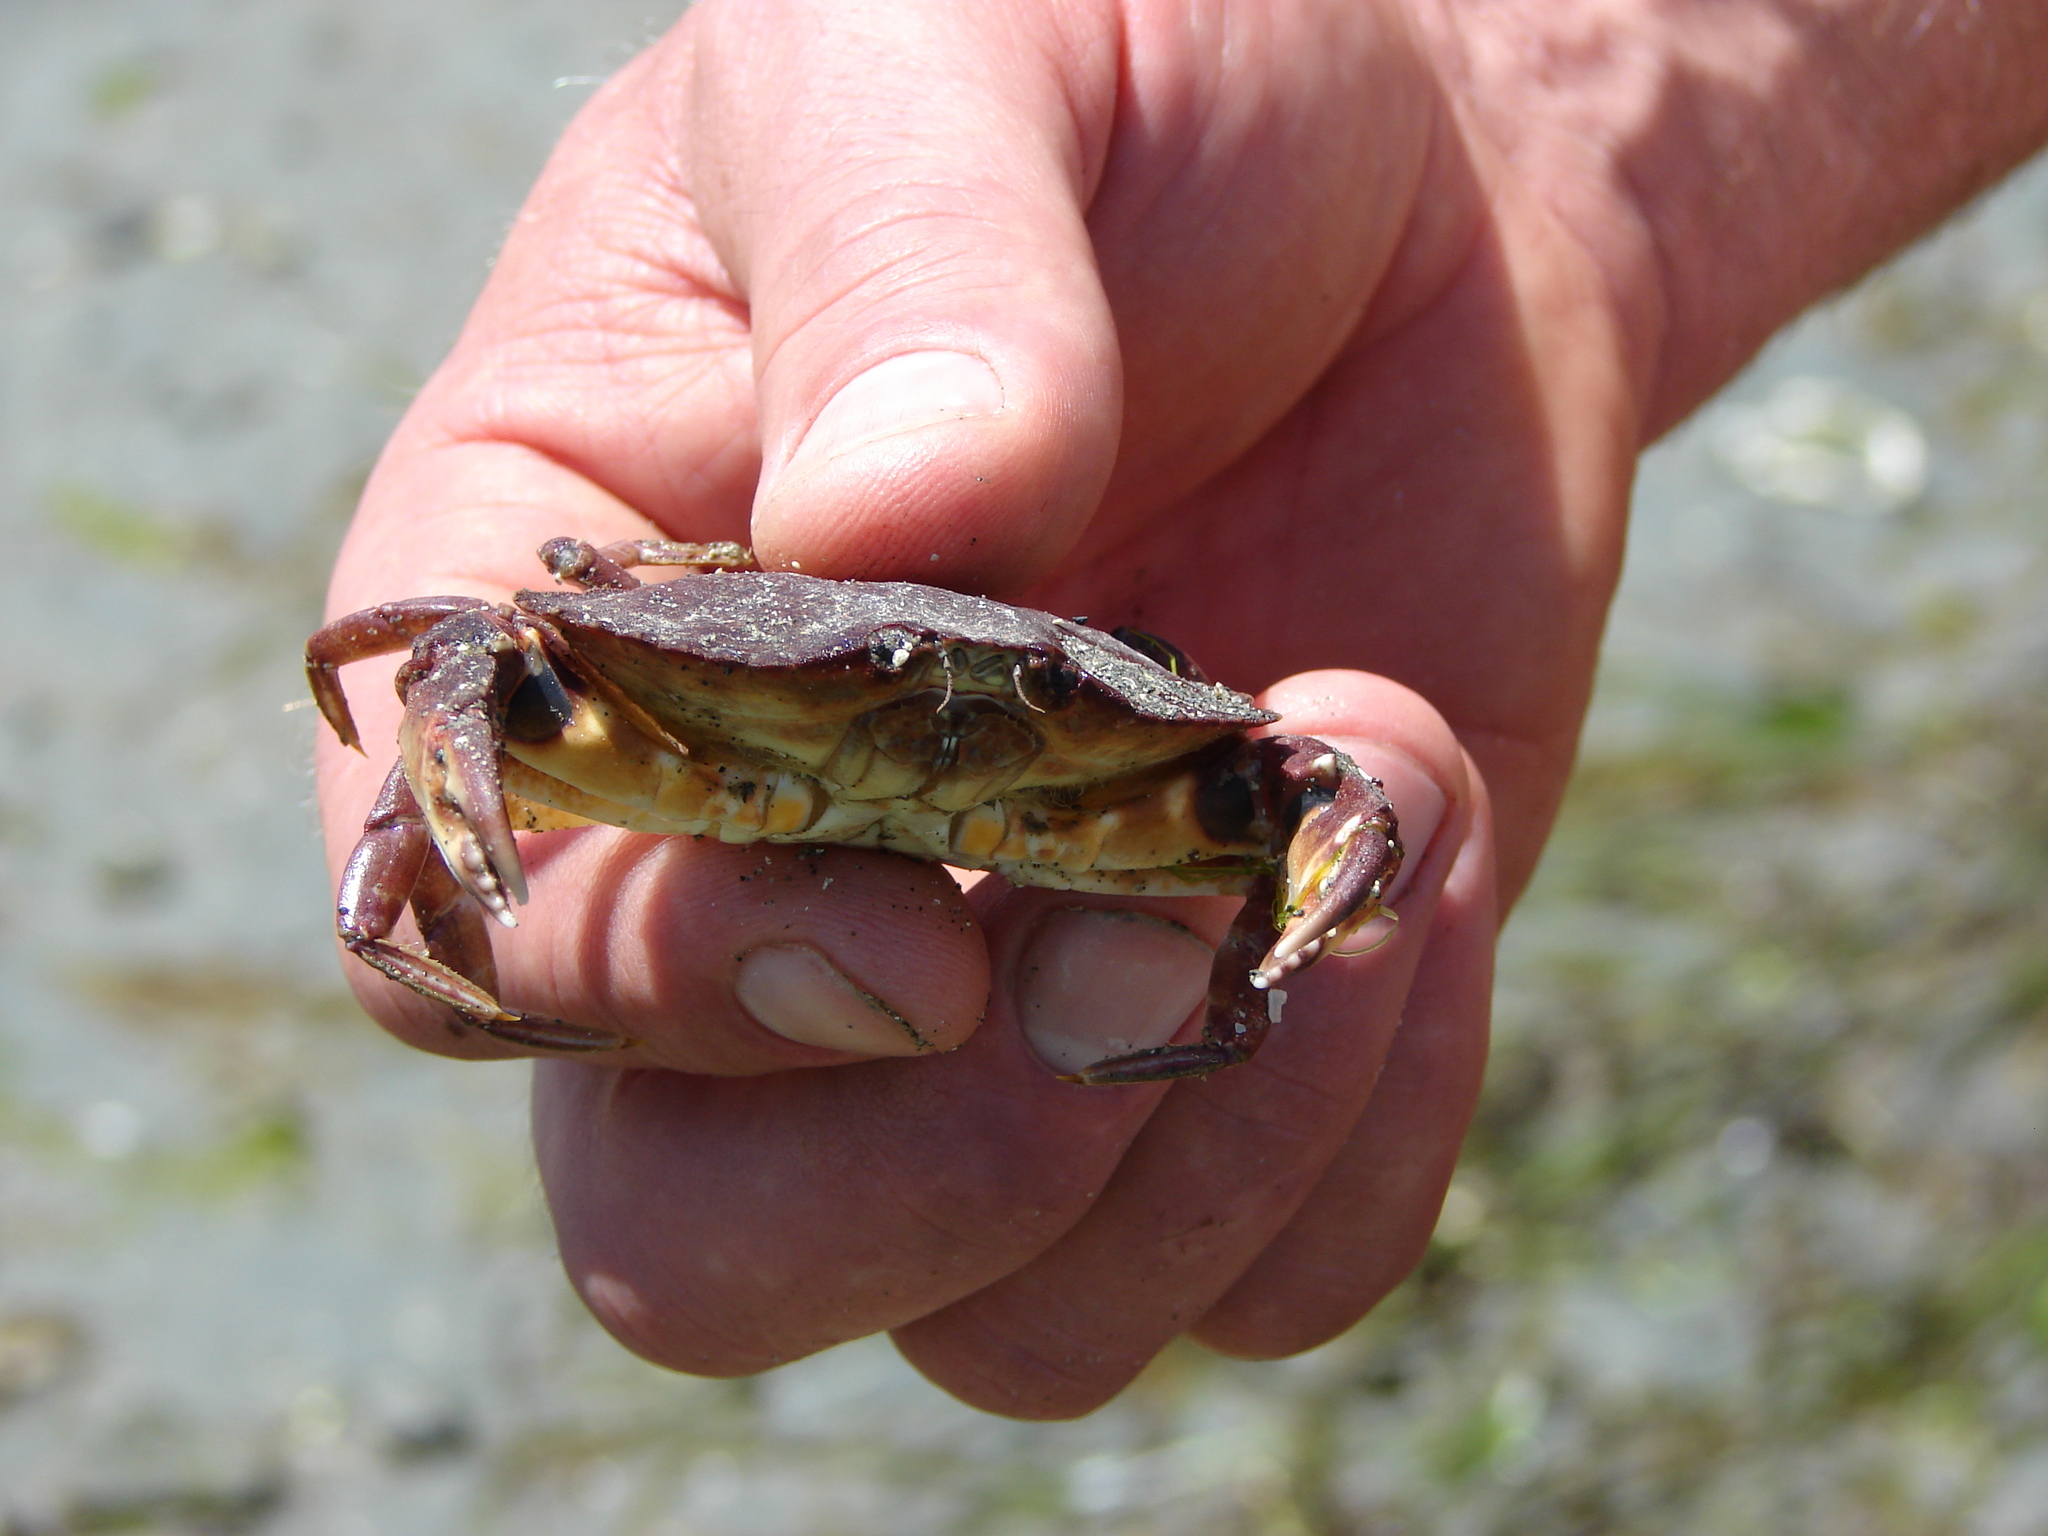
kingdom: Animalia
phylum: Arthropoda
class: Malacostraca
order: Decapoda
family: Cancridae
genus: Cancer
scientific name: Cancer productus
